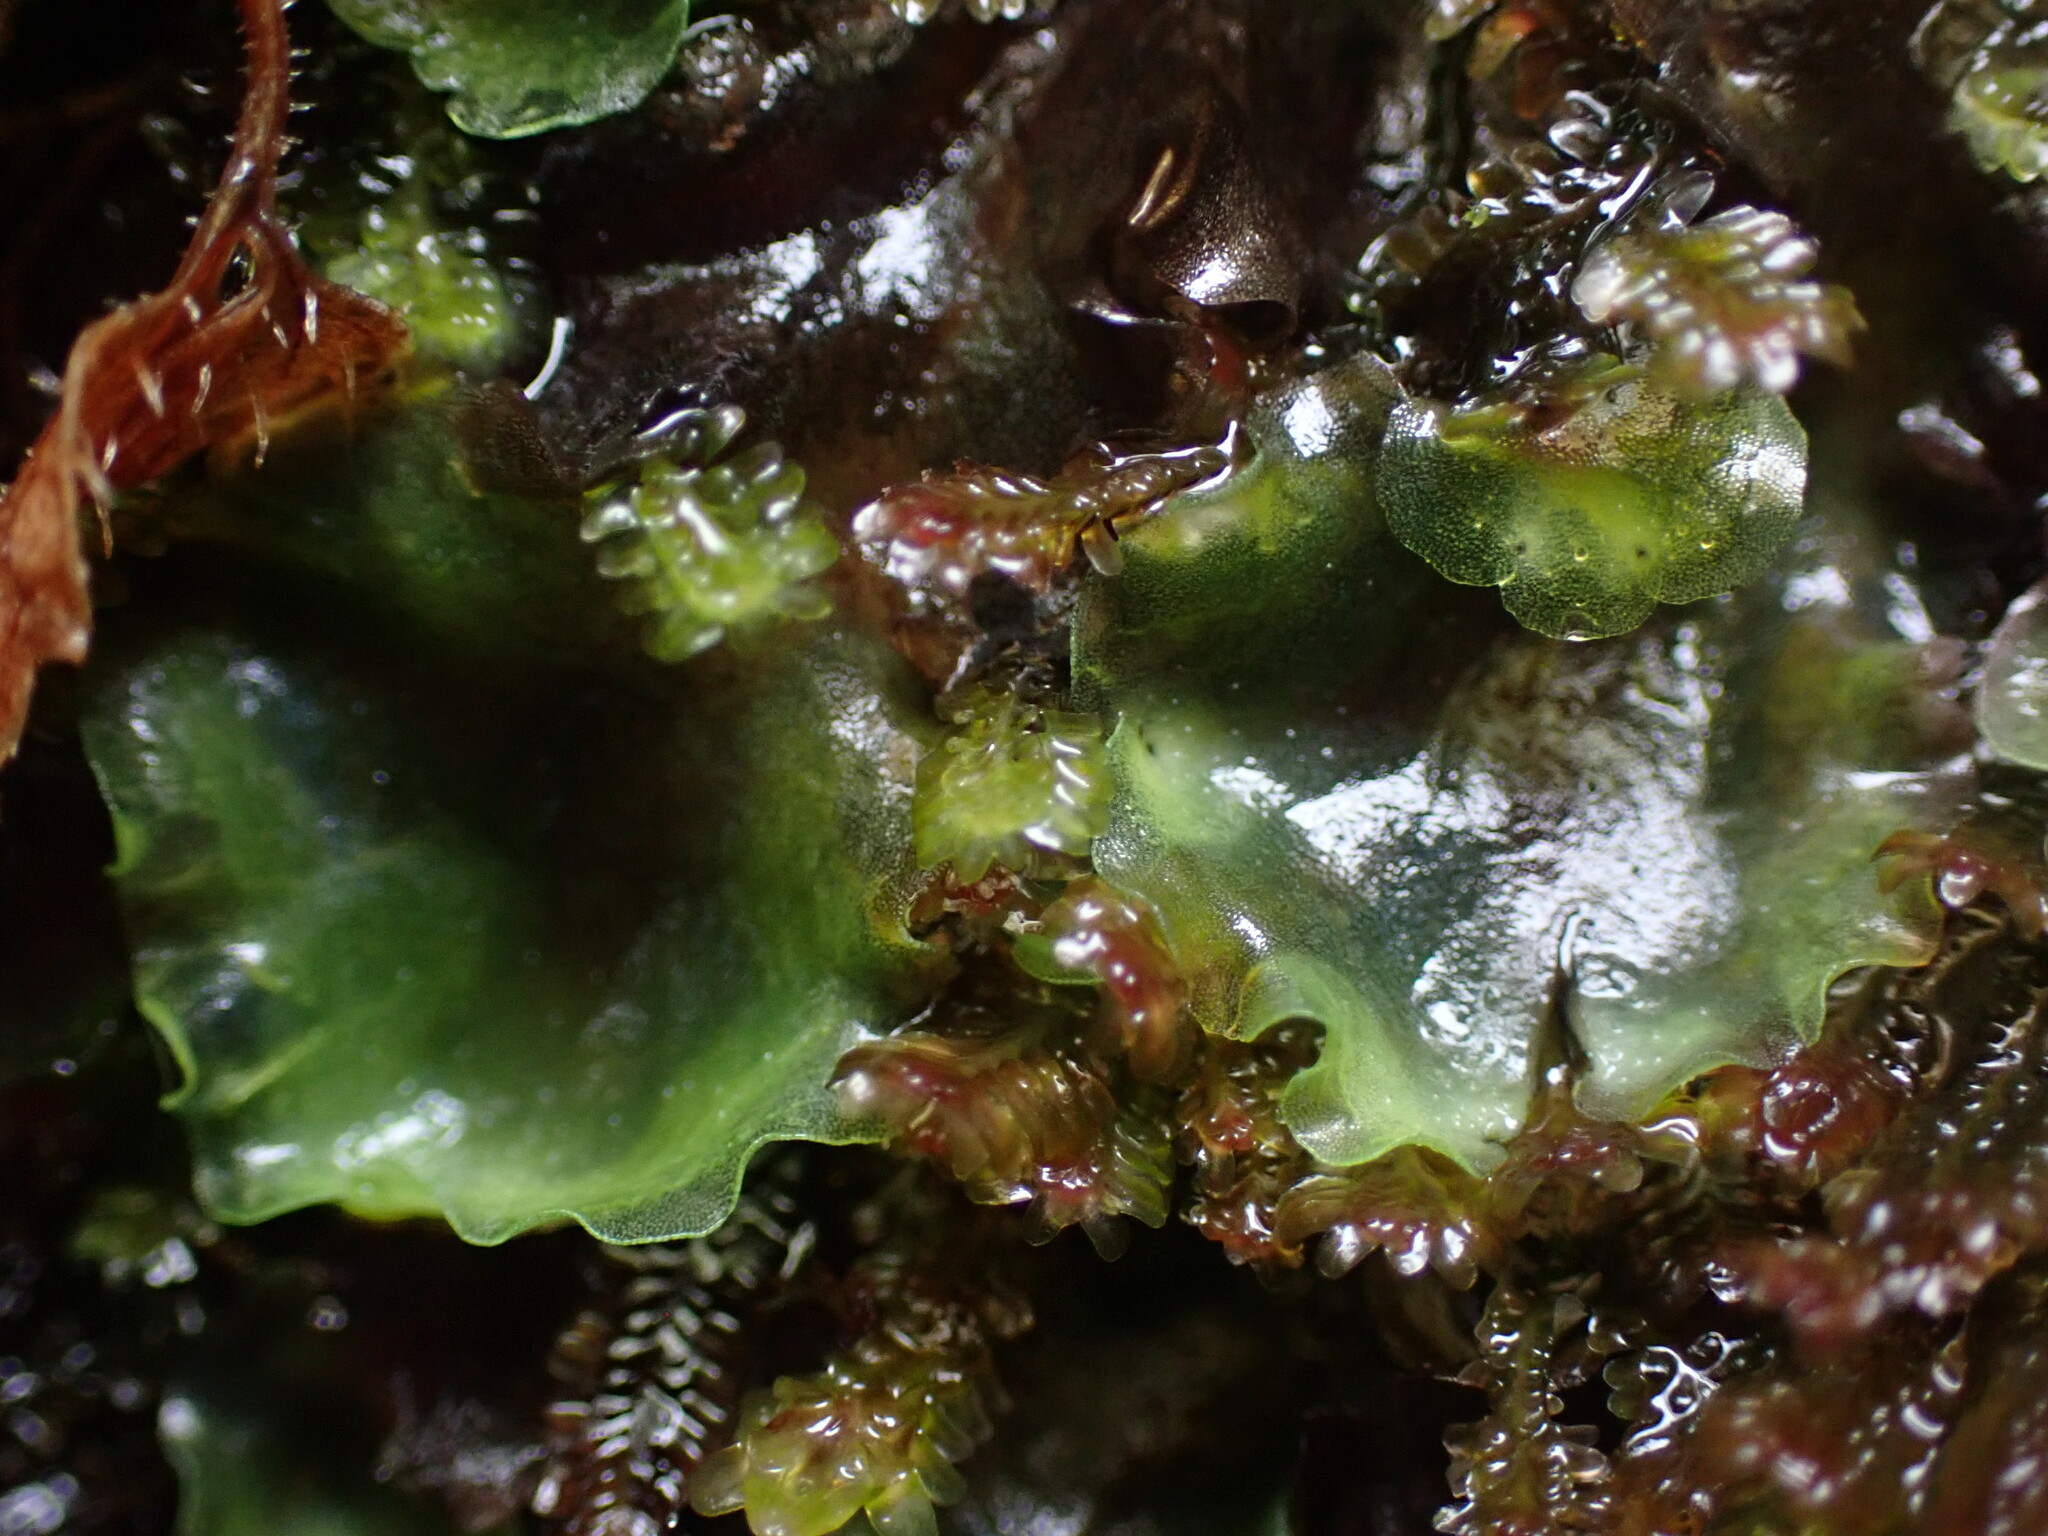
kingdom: Plantae
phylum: Marchantiophyta
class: Jungermanniopsida
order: Pelliales
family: Pelliaceae
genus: Pellia
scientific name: Pellia neesiana
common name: Nees  pellia
